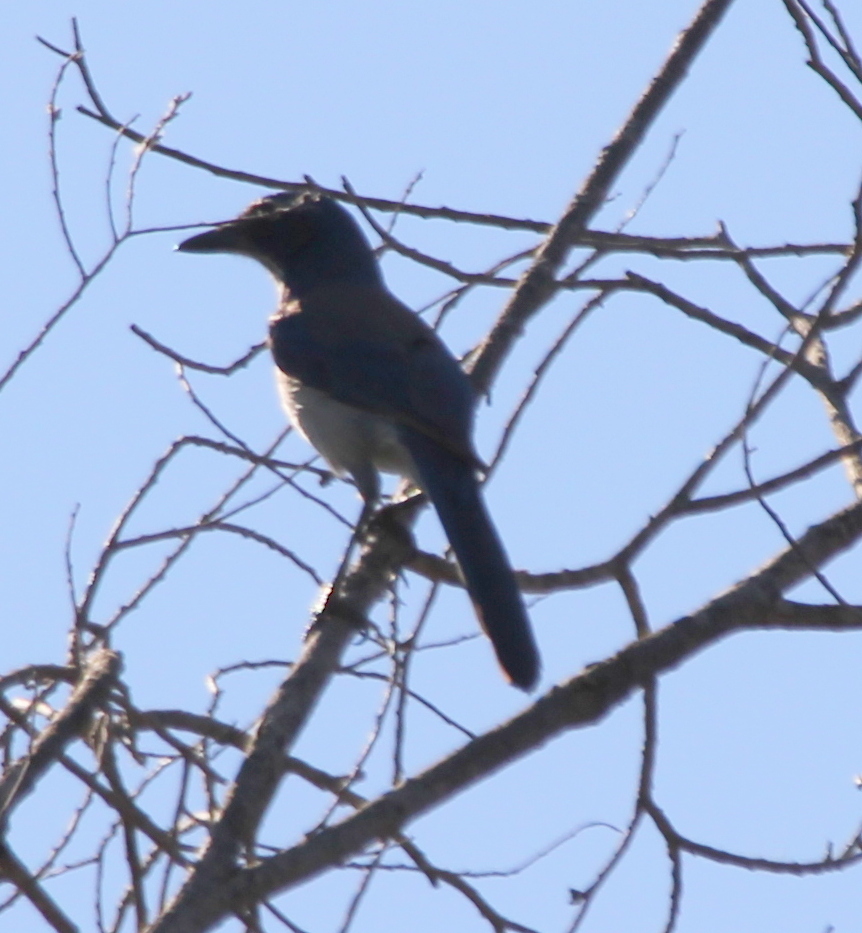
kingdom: Animalia
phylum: Chordata
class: Aves
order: Passeriformes
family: Corvidae
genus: Aphelocoma
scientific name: Aphelocoma californica
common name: California scrub-jay
